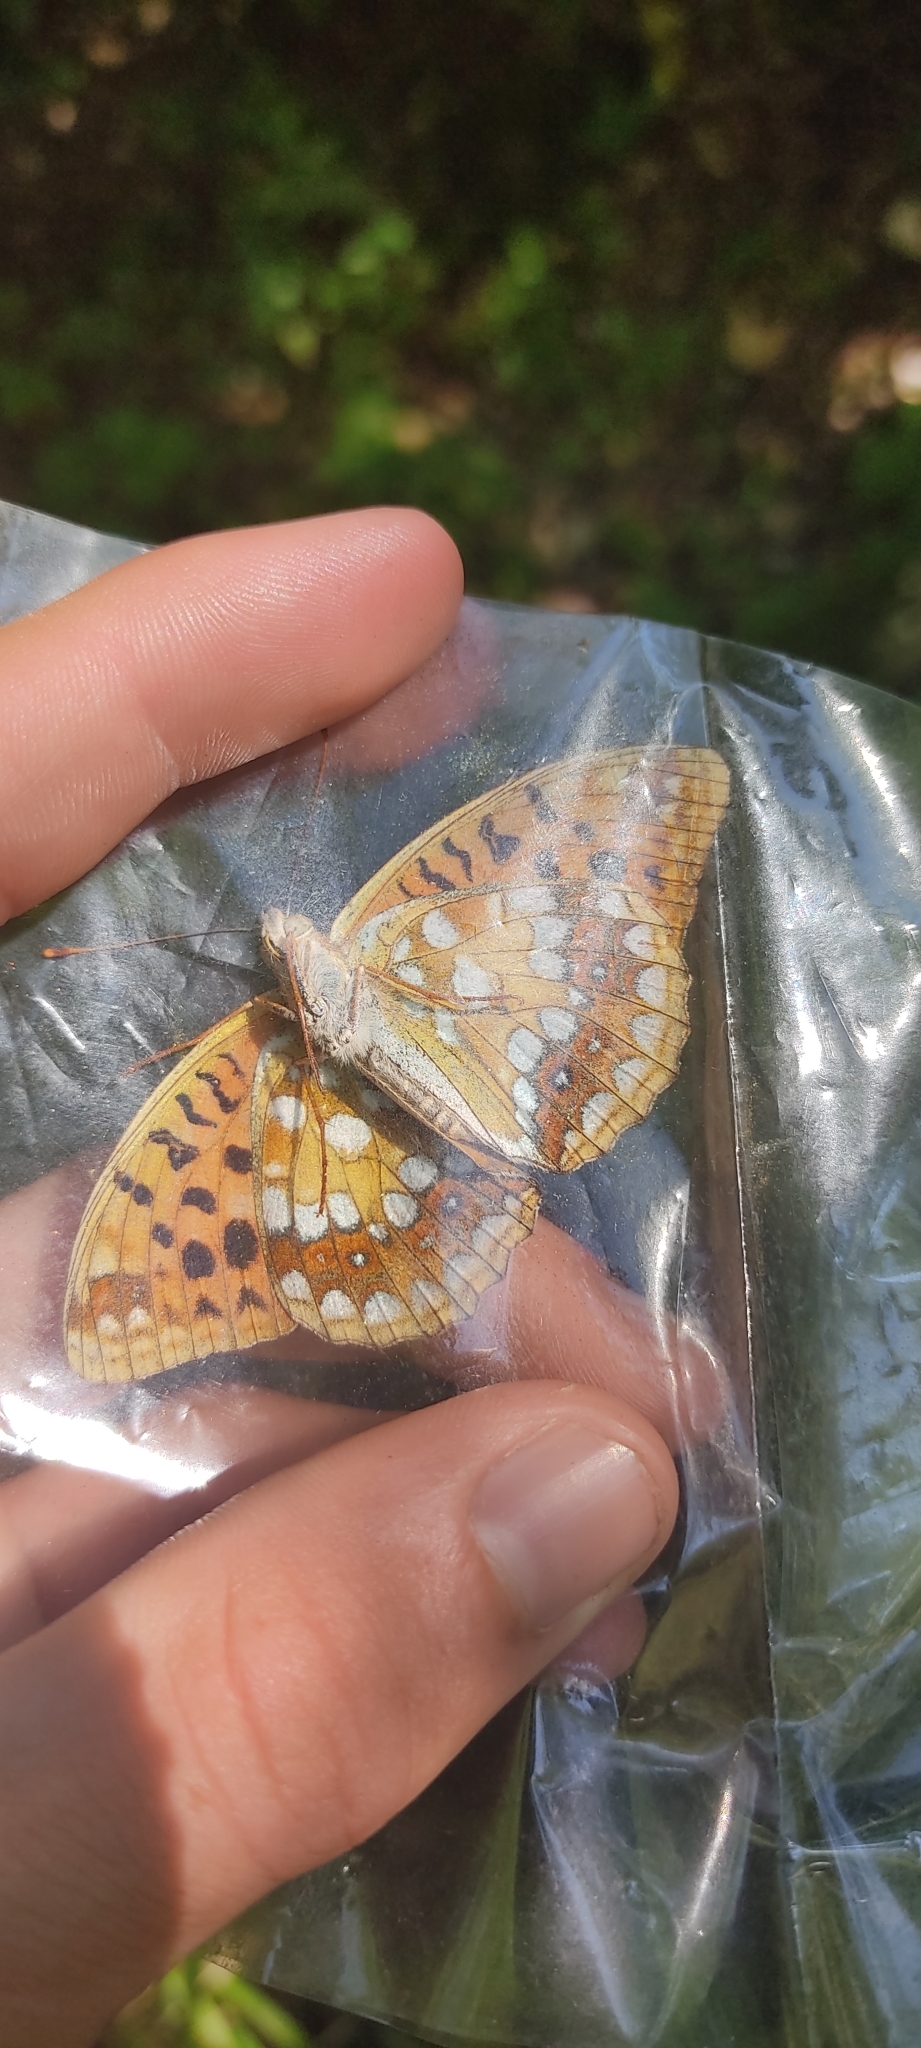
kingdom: Animalia
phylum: Arthropoda
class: Insecta
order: Lepidoptera
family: Nymphalidae
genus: Fabriciana
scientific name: Fabriciana adippe
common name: High brown fritillary
